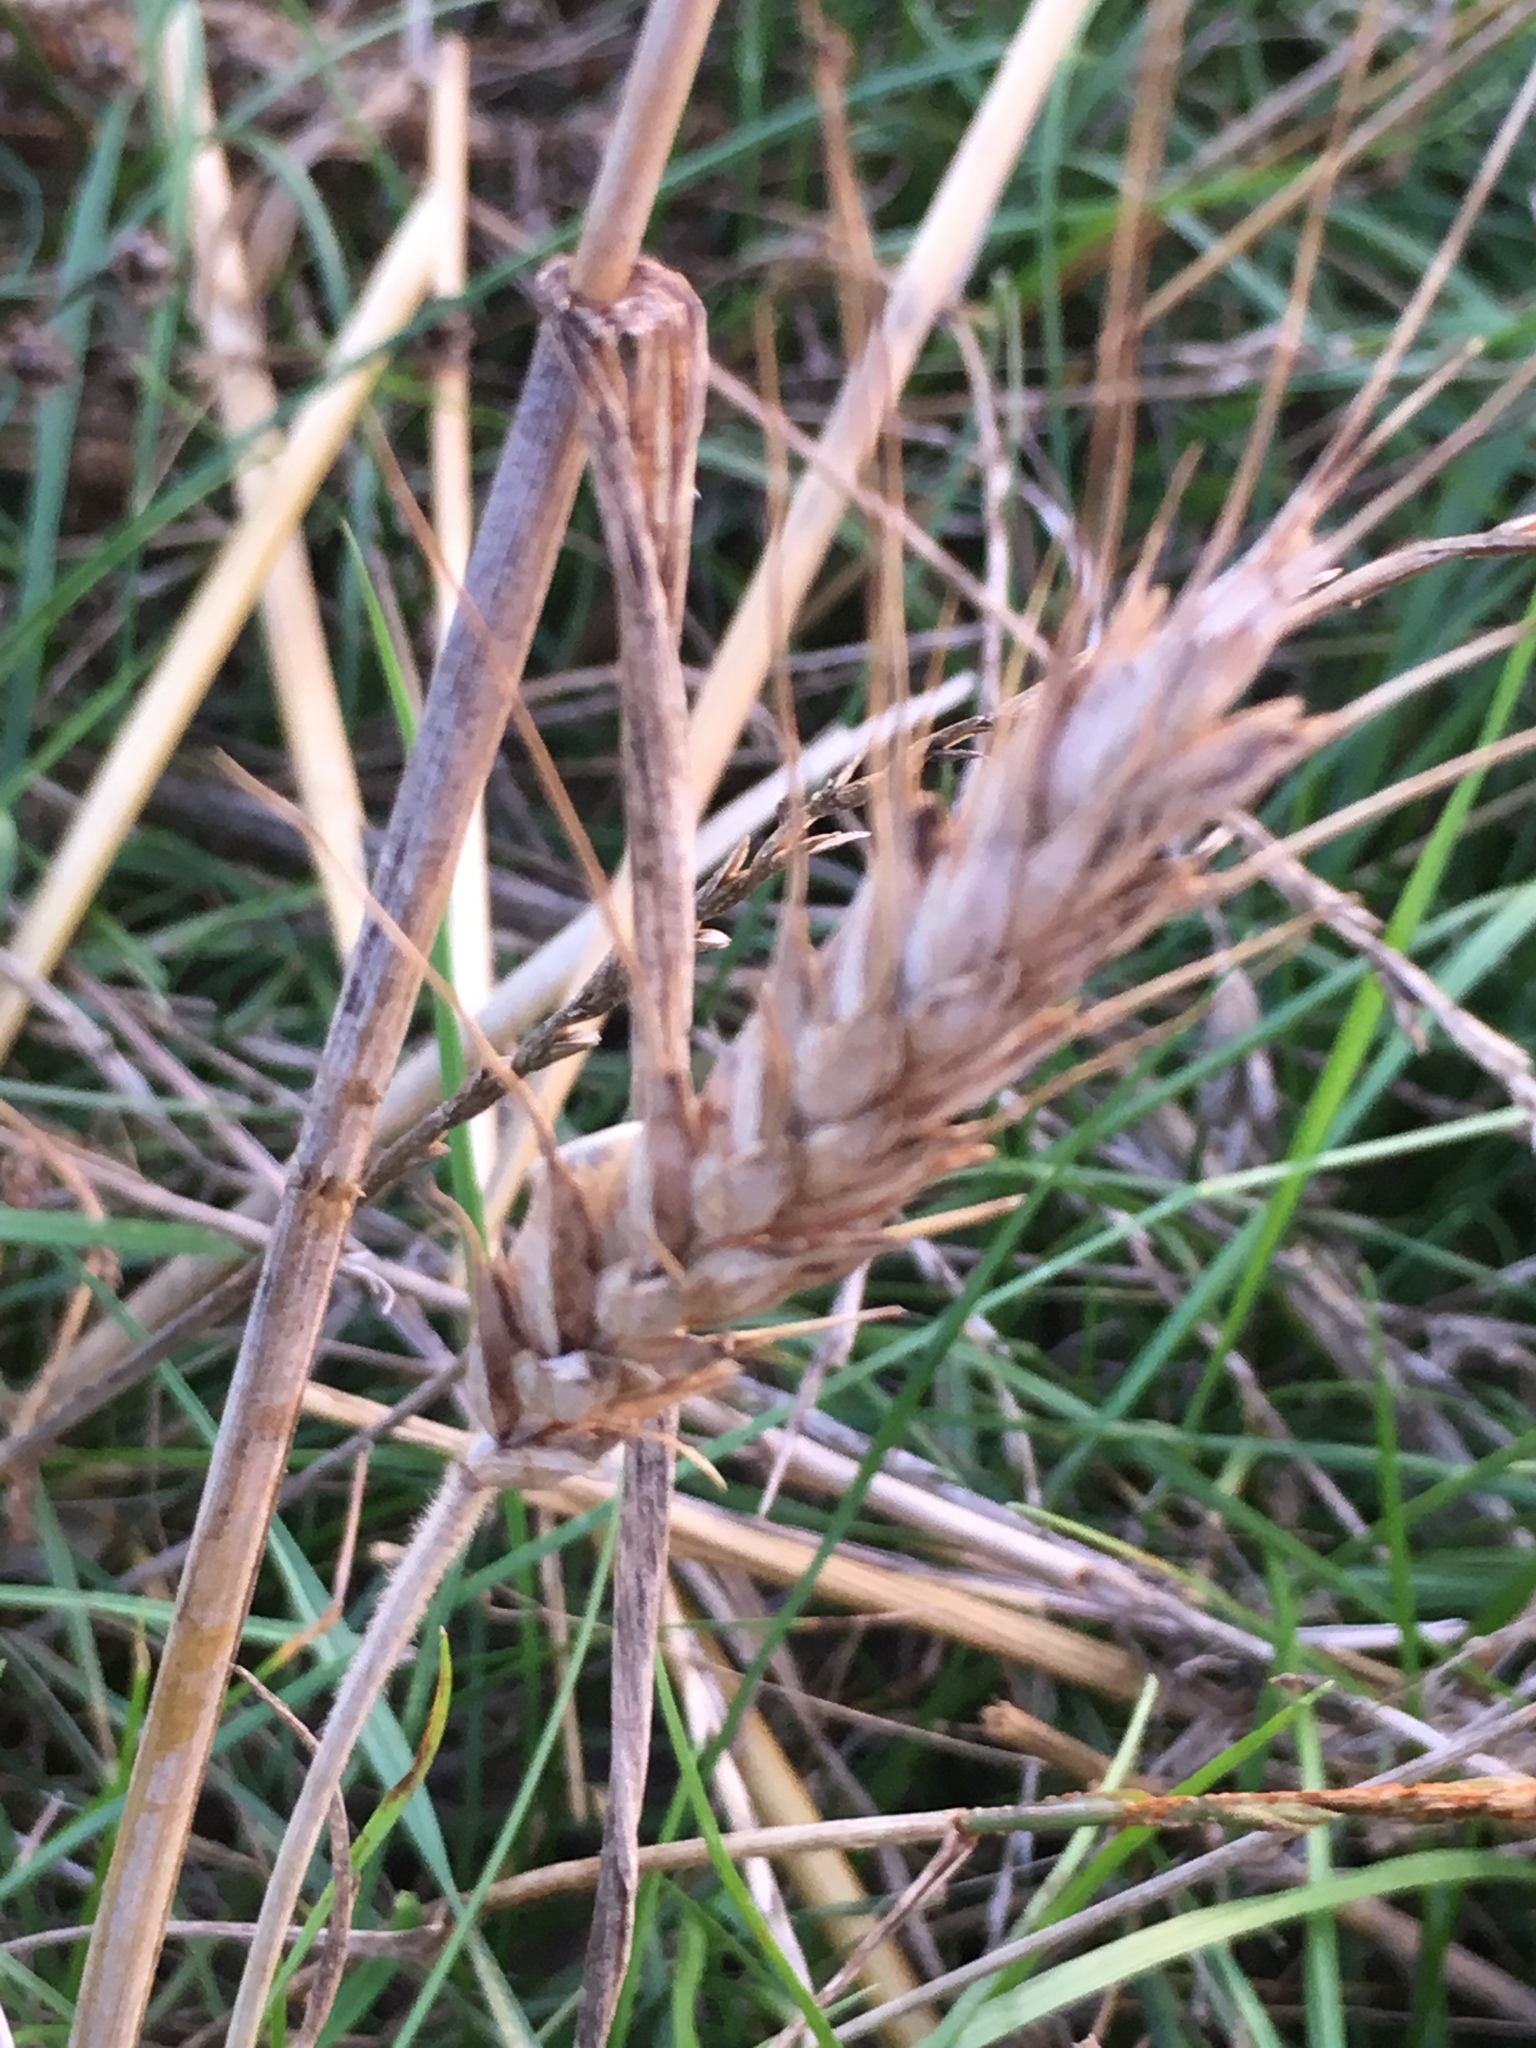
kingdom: Plantae
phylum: Tracheophyta
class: Liliopsida
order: Poales
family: Poaceae
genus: Triticum
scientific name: Triticum aestivum
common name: Common wheat
